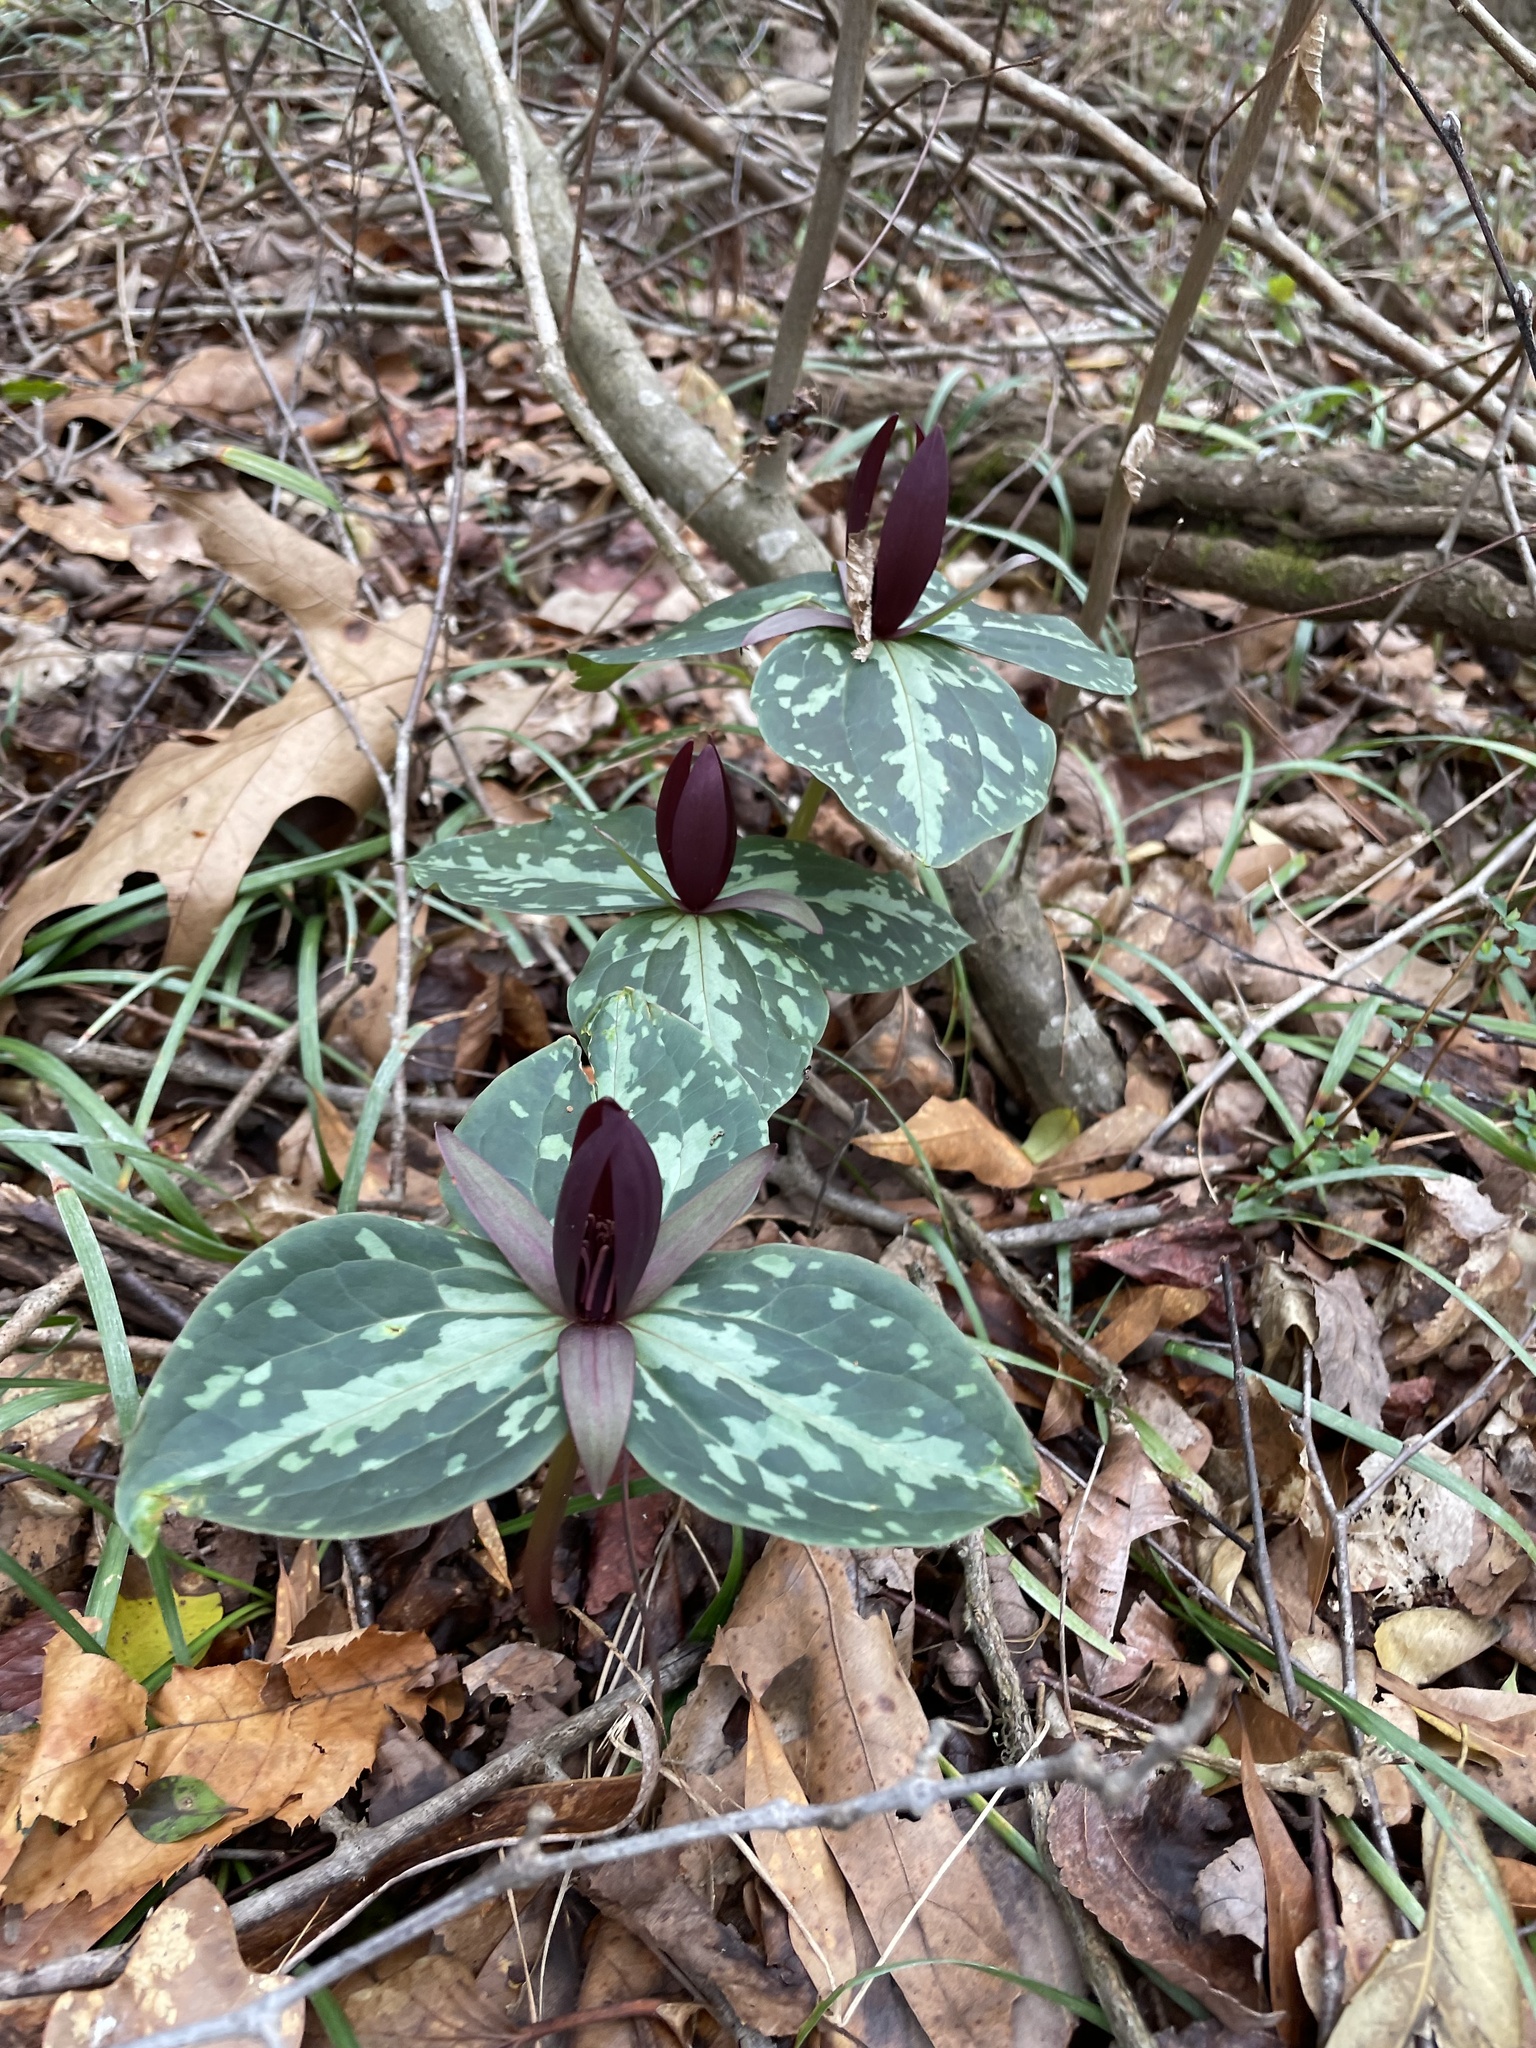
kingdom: Plantae
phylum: Tracheophyta
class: Liliopsida
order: Liliales
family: Melanthiaceae
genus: Trillium
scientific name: Trillium cuneatum
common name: Cuneate trillium
